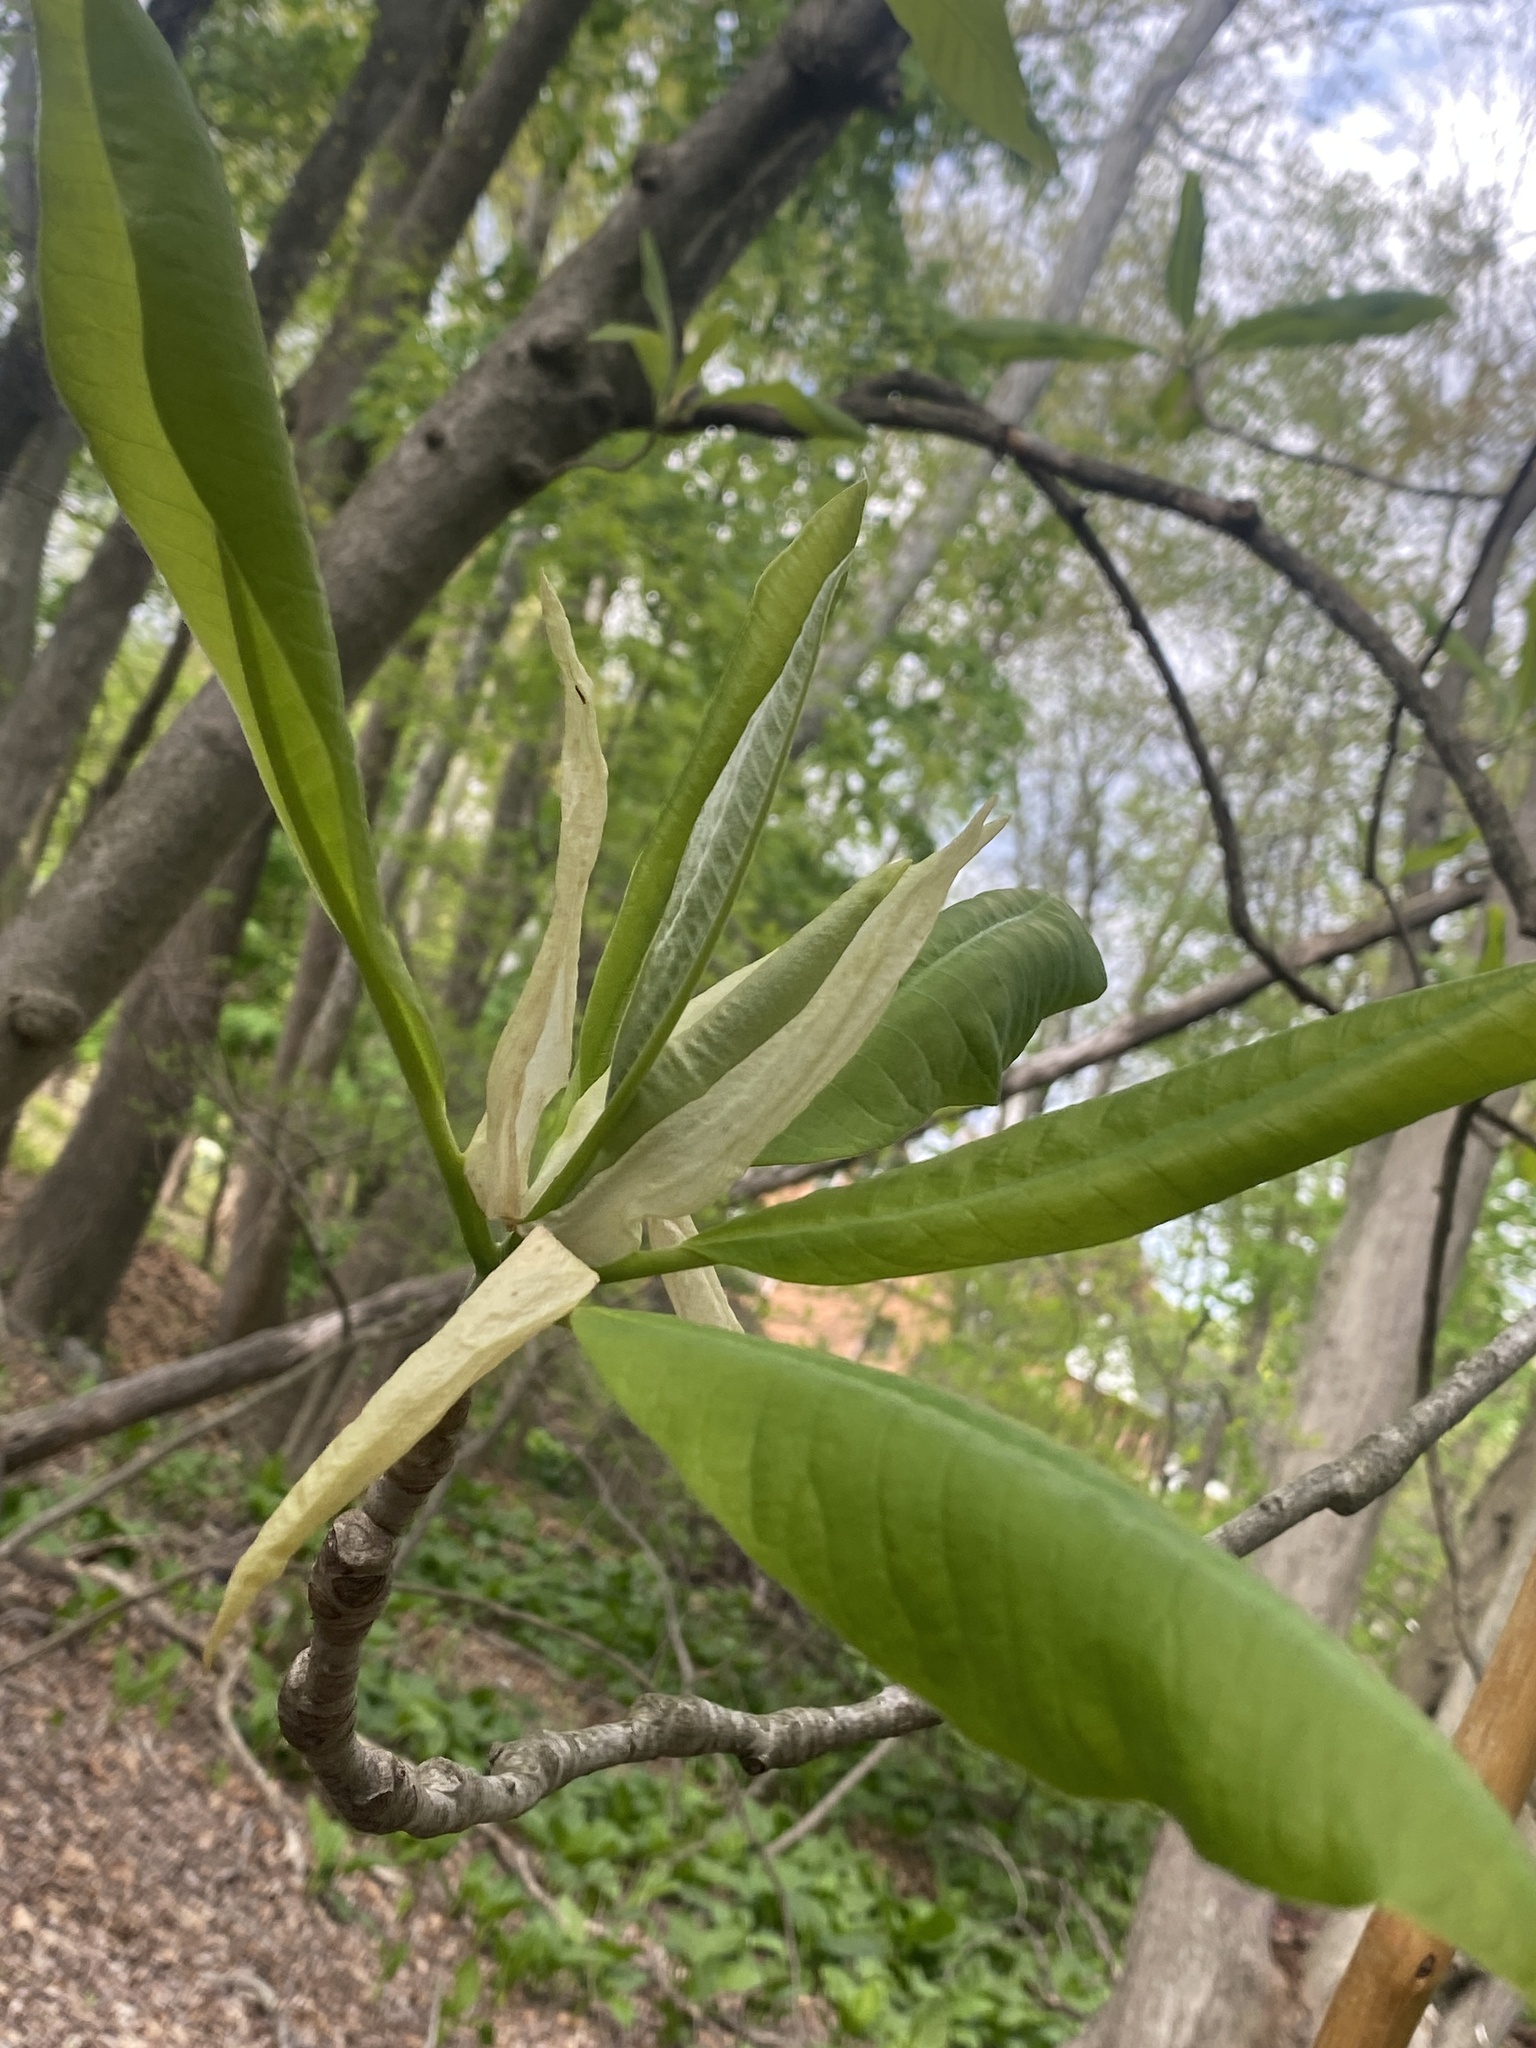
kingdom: Plantae
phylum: Tracheophyta
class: Magnoliopsida
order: Magnoliales
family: Magnoliaceae
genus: Magnolia
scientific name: Magnolia tripetala
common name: Umbrella magnolia
